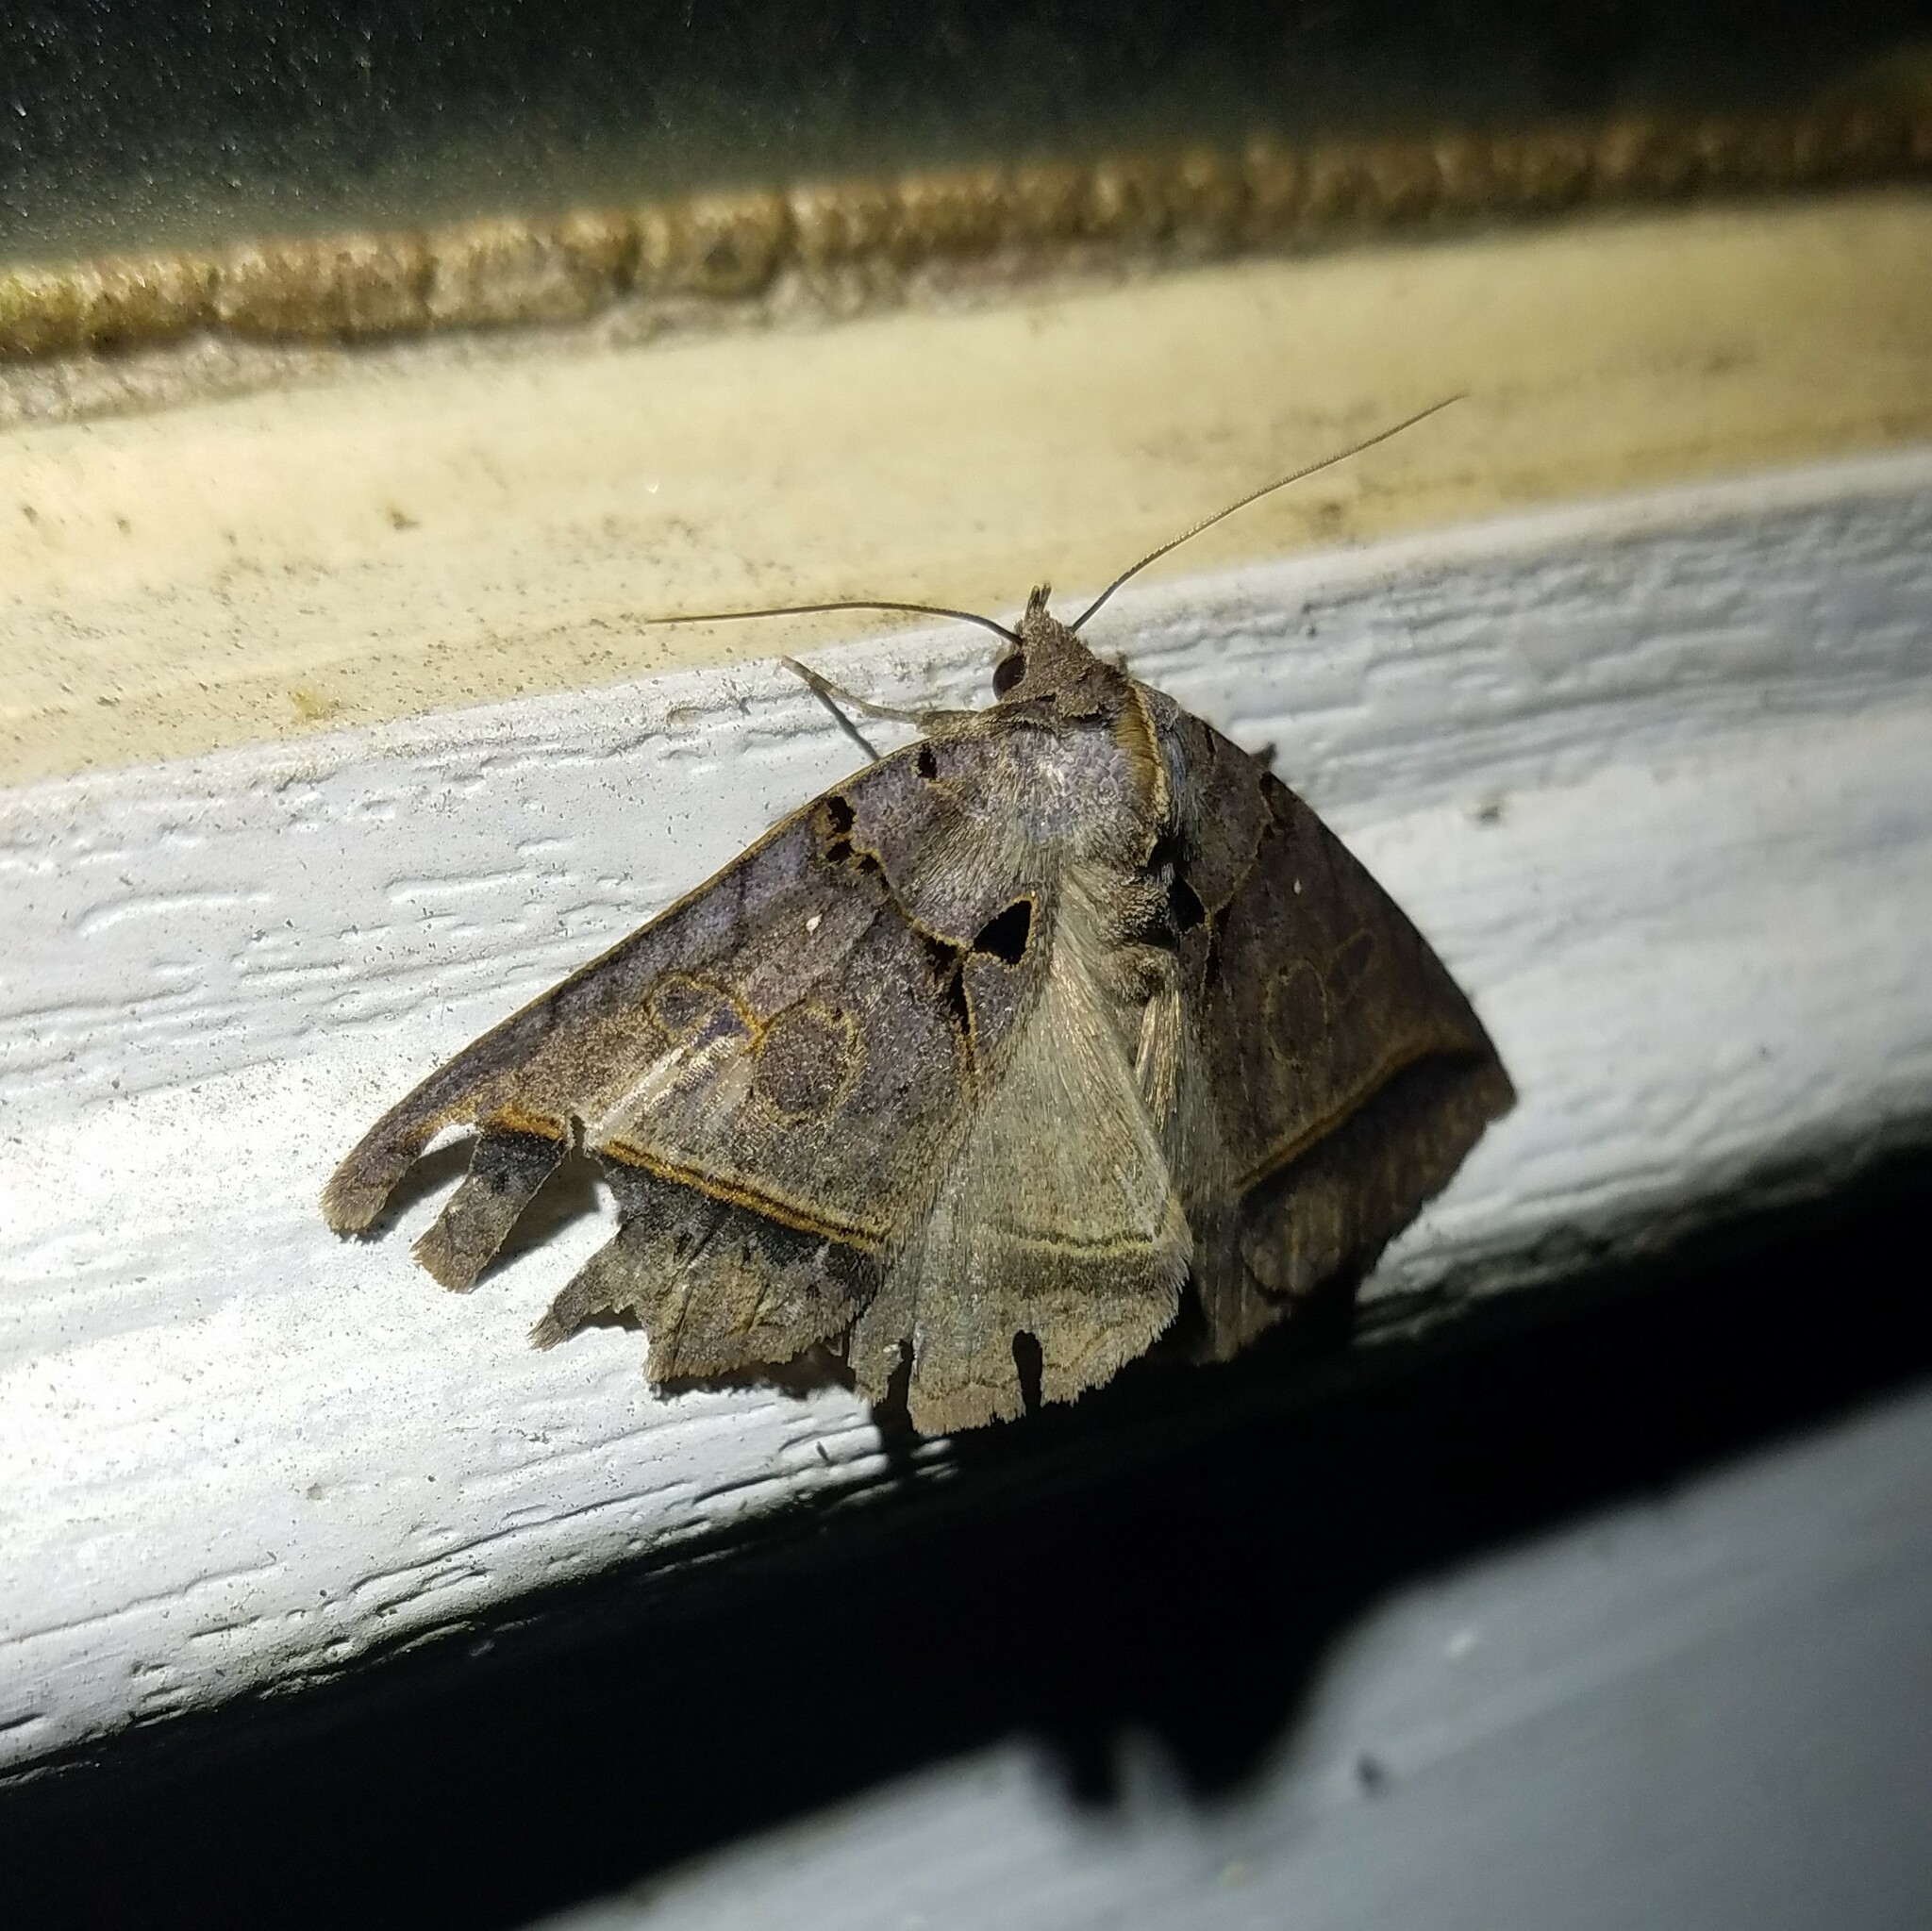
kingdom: Animalia
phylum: Arthropoda
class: Insecta
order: Lepidoptera
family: Erebidae
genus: Celiptera
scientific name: Celiptera frustulum
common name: Black bit moth
